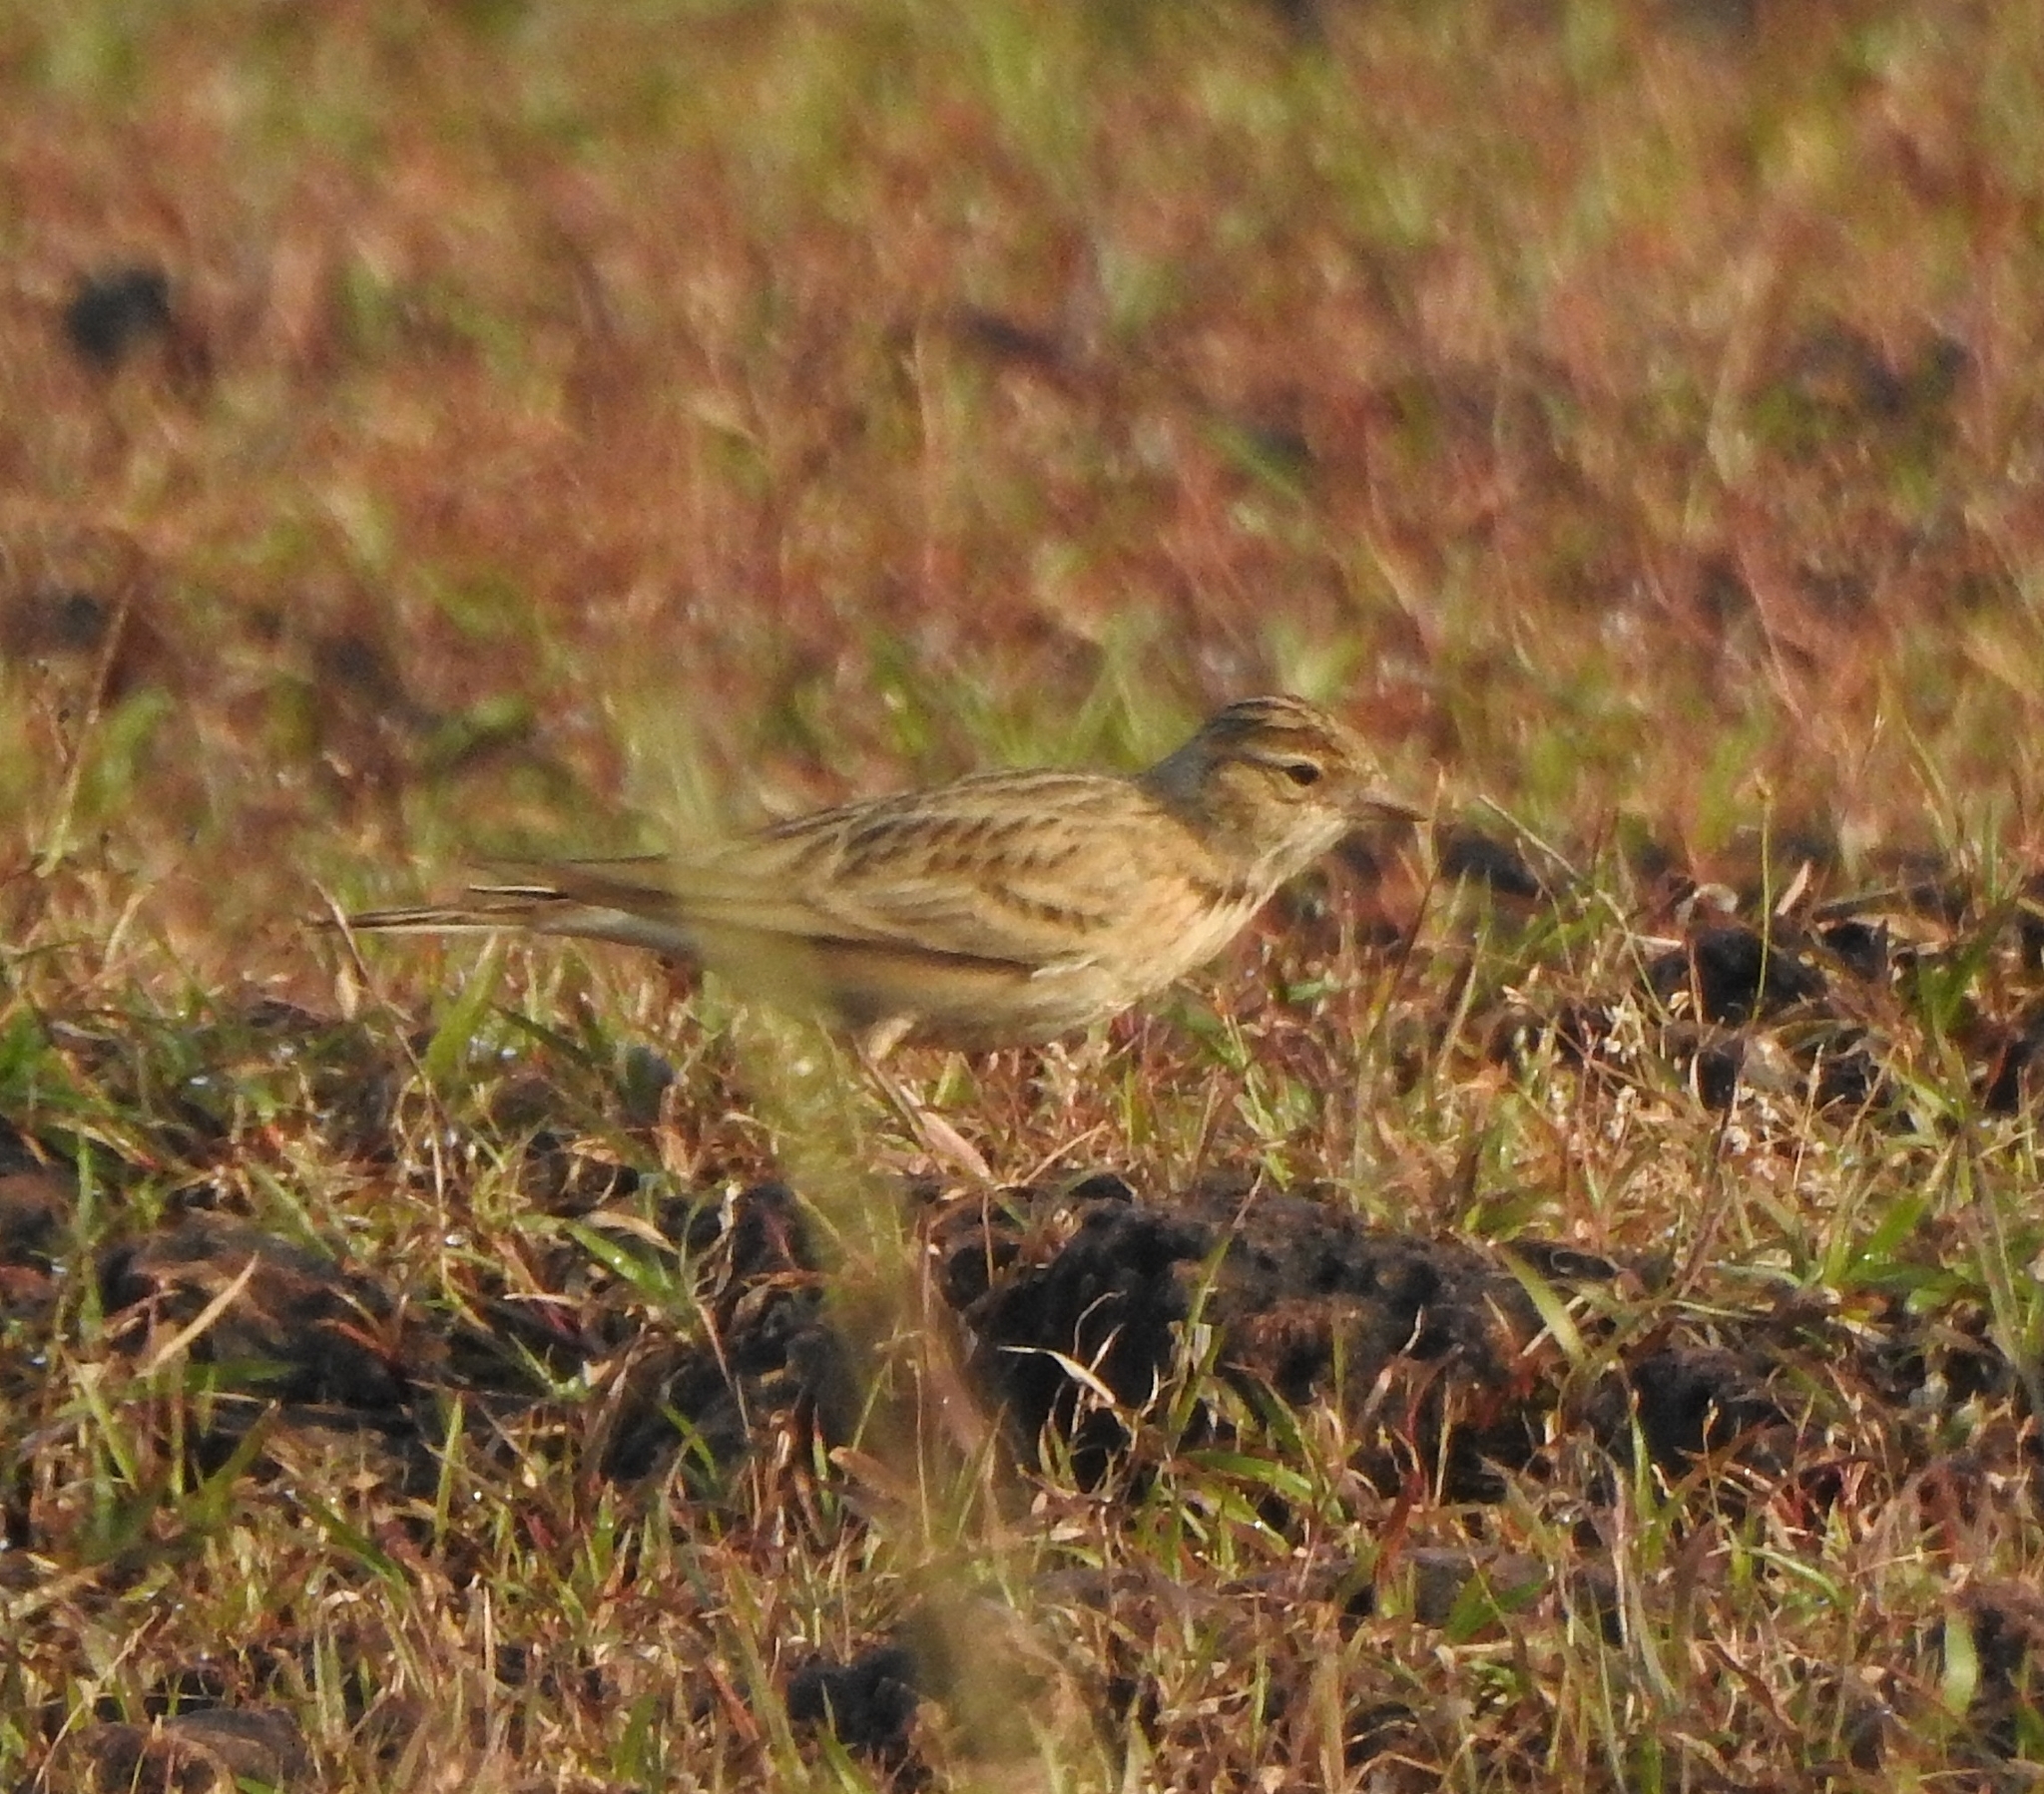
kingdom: Animalia
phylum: Chordata
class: Aves
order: Passeriformes
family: Alaudidae
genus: Calandrella
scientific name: Calandrella brachydactyla
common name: Greater short-toed lark
